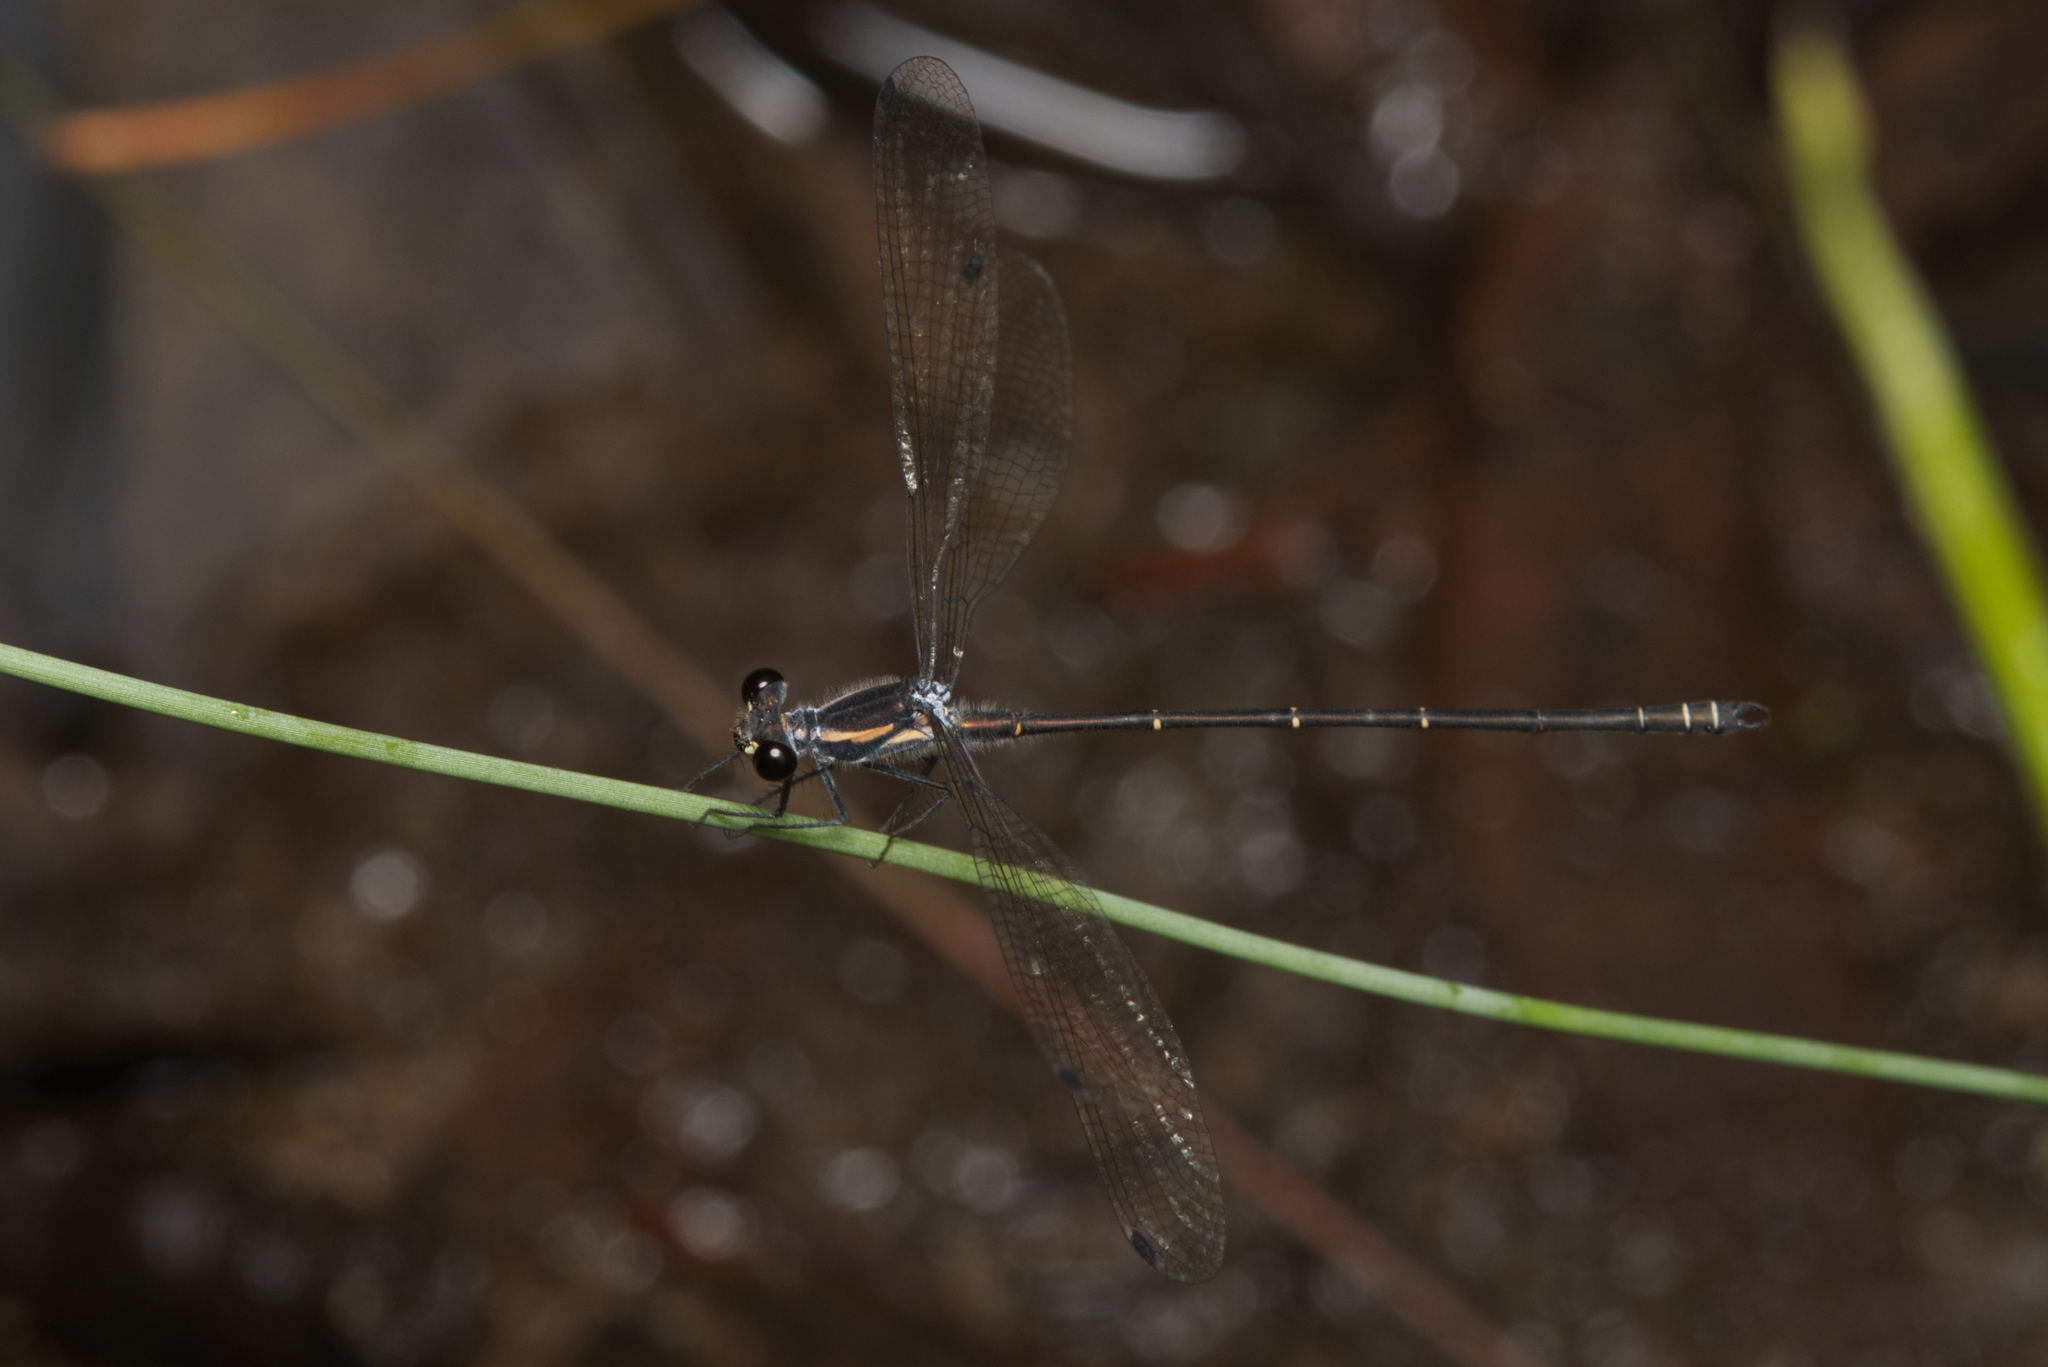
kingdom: Animalia
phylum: Arthropoda
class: Insecta
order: Odonata
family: Argiolestidae
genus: Austroargiolestes
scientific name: Austroargiolestes icteromelas
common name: Common flatwing
